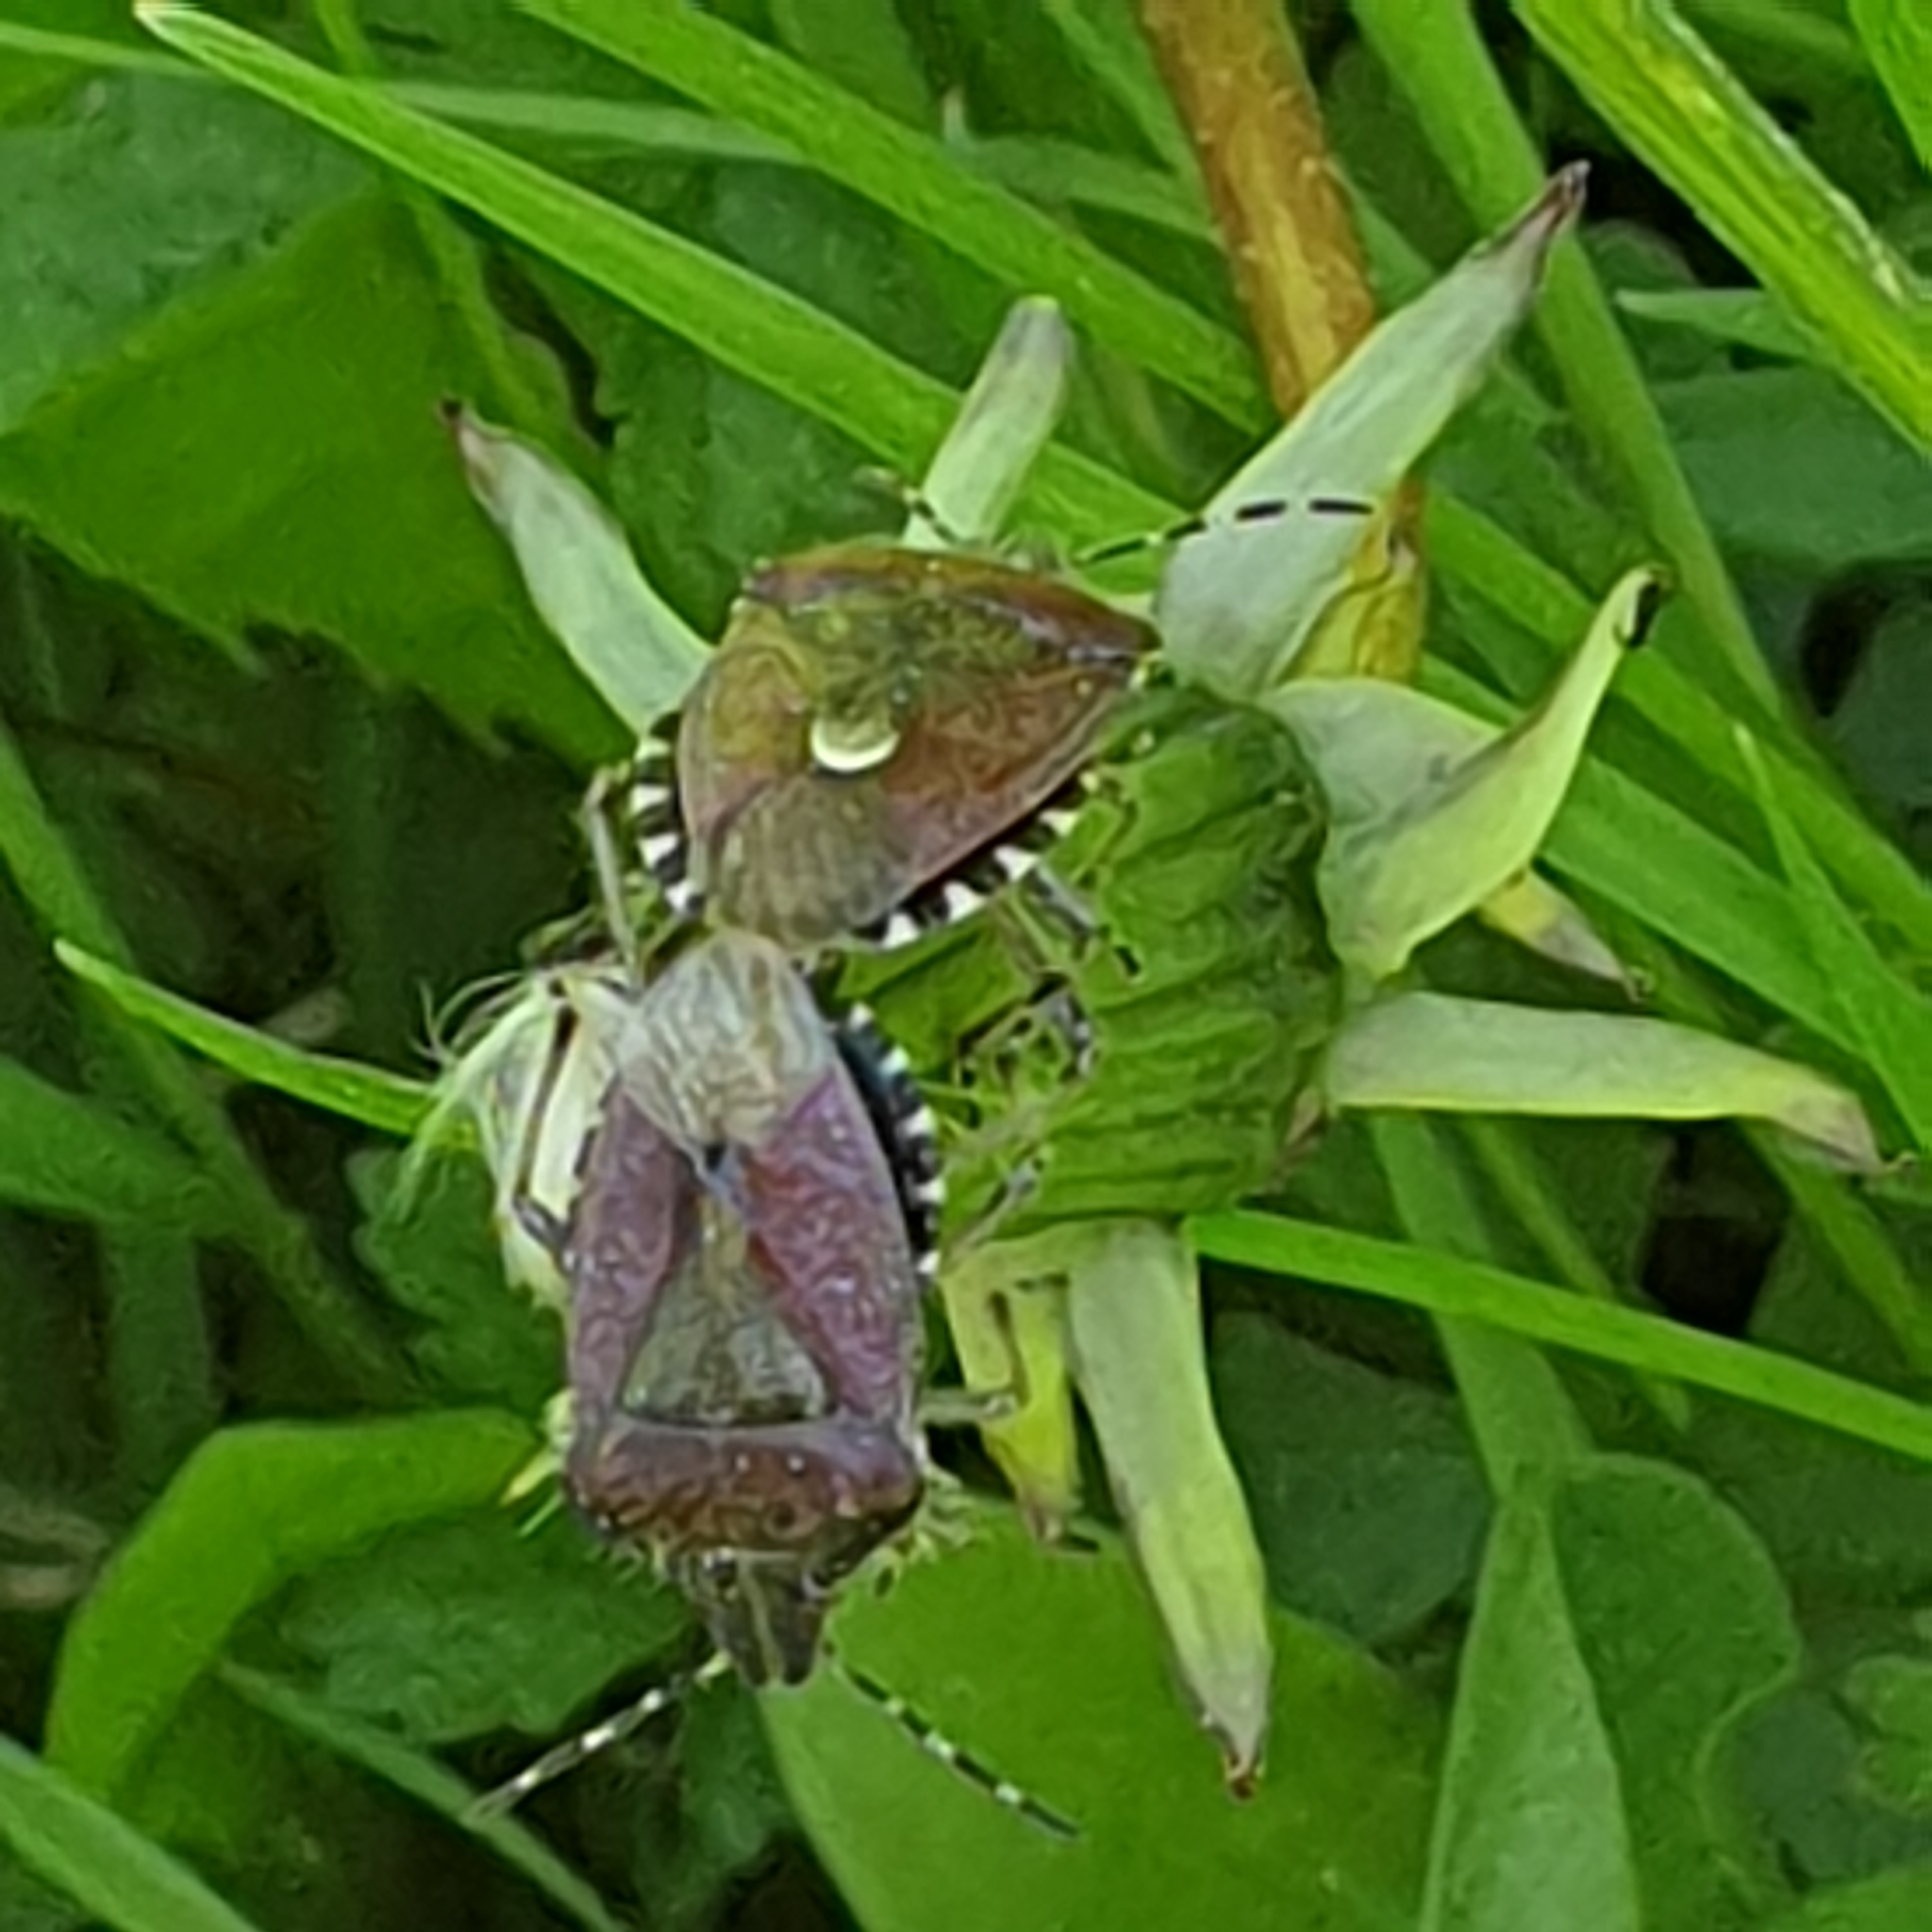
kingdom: Animalia
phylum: Arthropoda
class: Insecta
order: Hemiptera
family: Pentatomidae
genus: Dolycoris
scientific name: Dolycoris baccarum
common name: Sloe bug
